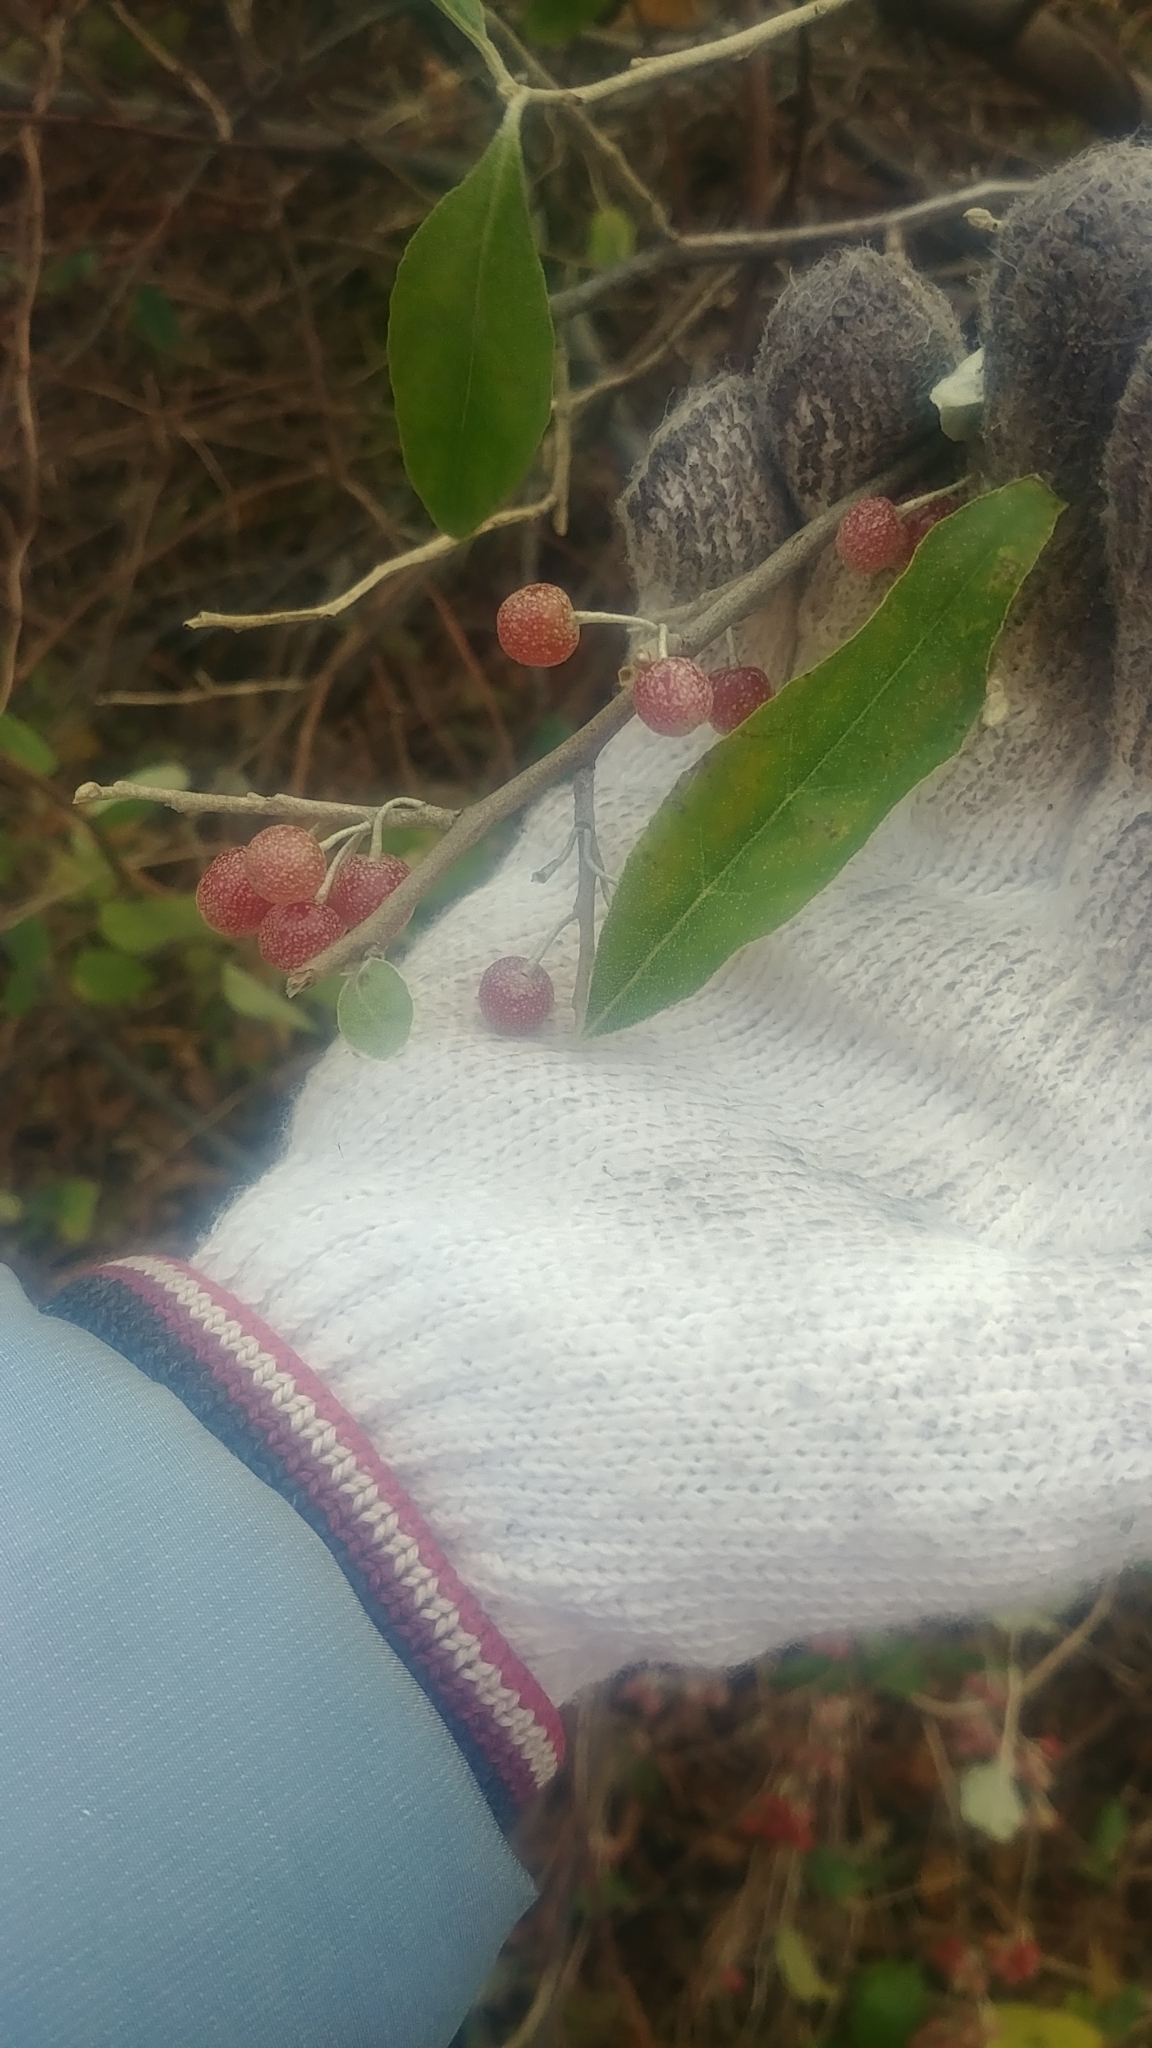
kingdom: Plantae
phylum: Tracheophyta
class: Magnoliopsida
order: Rosales
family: Elaeagnaceae
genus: Elaeagnus
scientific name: Elaeagnus umbellata
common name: Autumn olive
